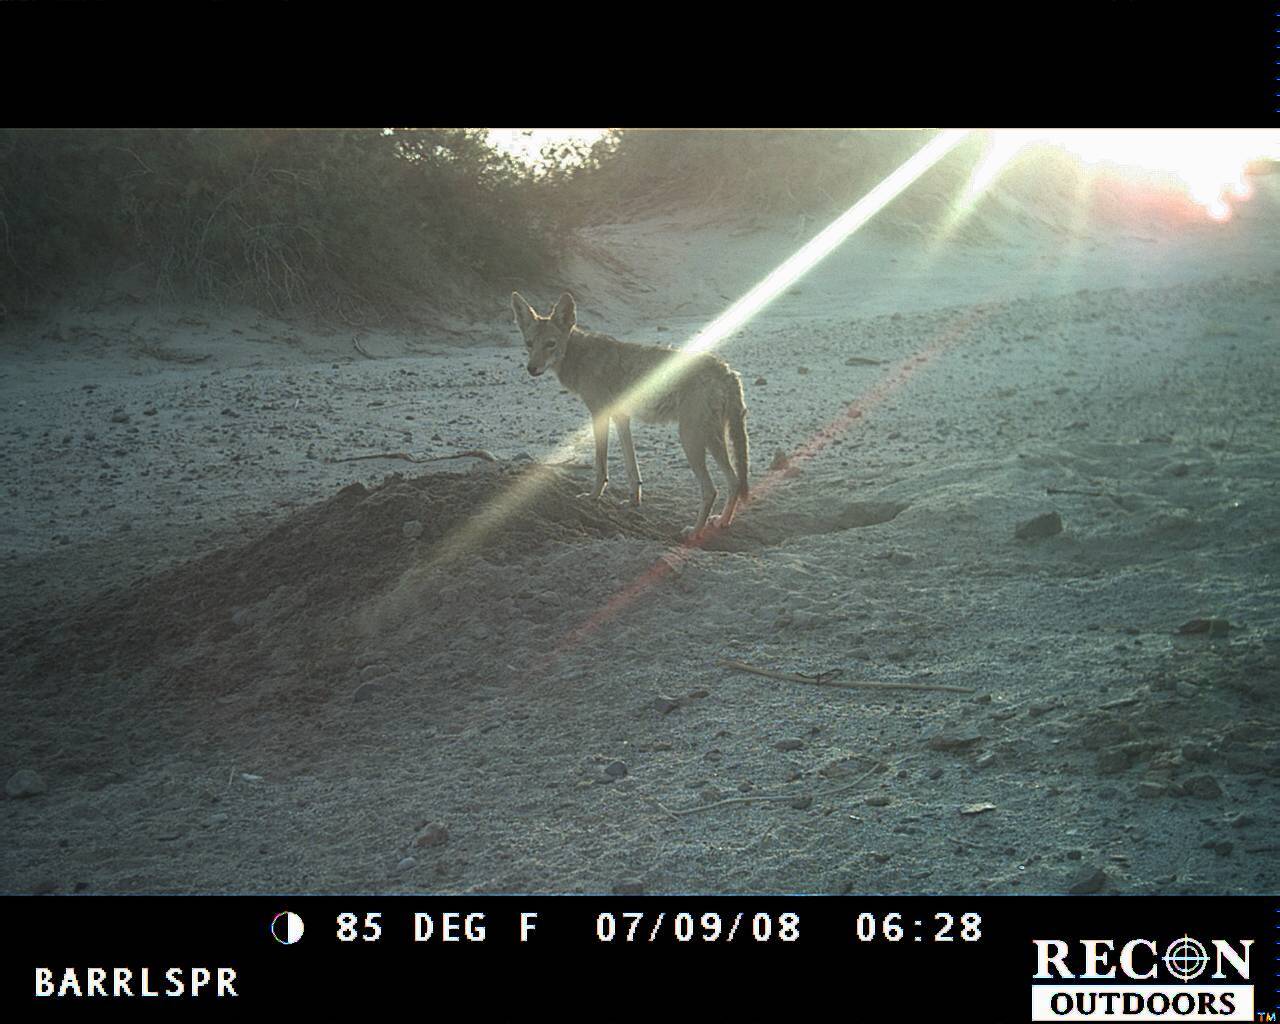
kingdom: Animalia
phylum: Chordata
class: Mammalia
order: Carnivora
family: Canidae
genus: Canis
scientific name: Canis latrans
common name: Coyote
